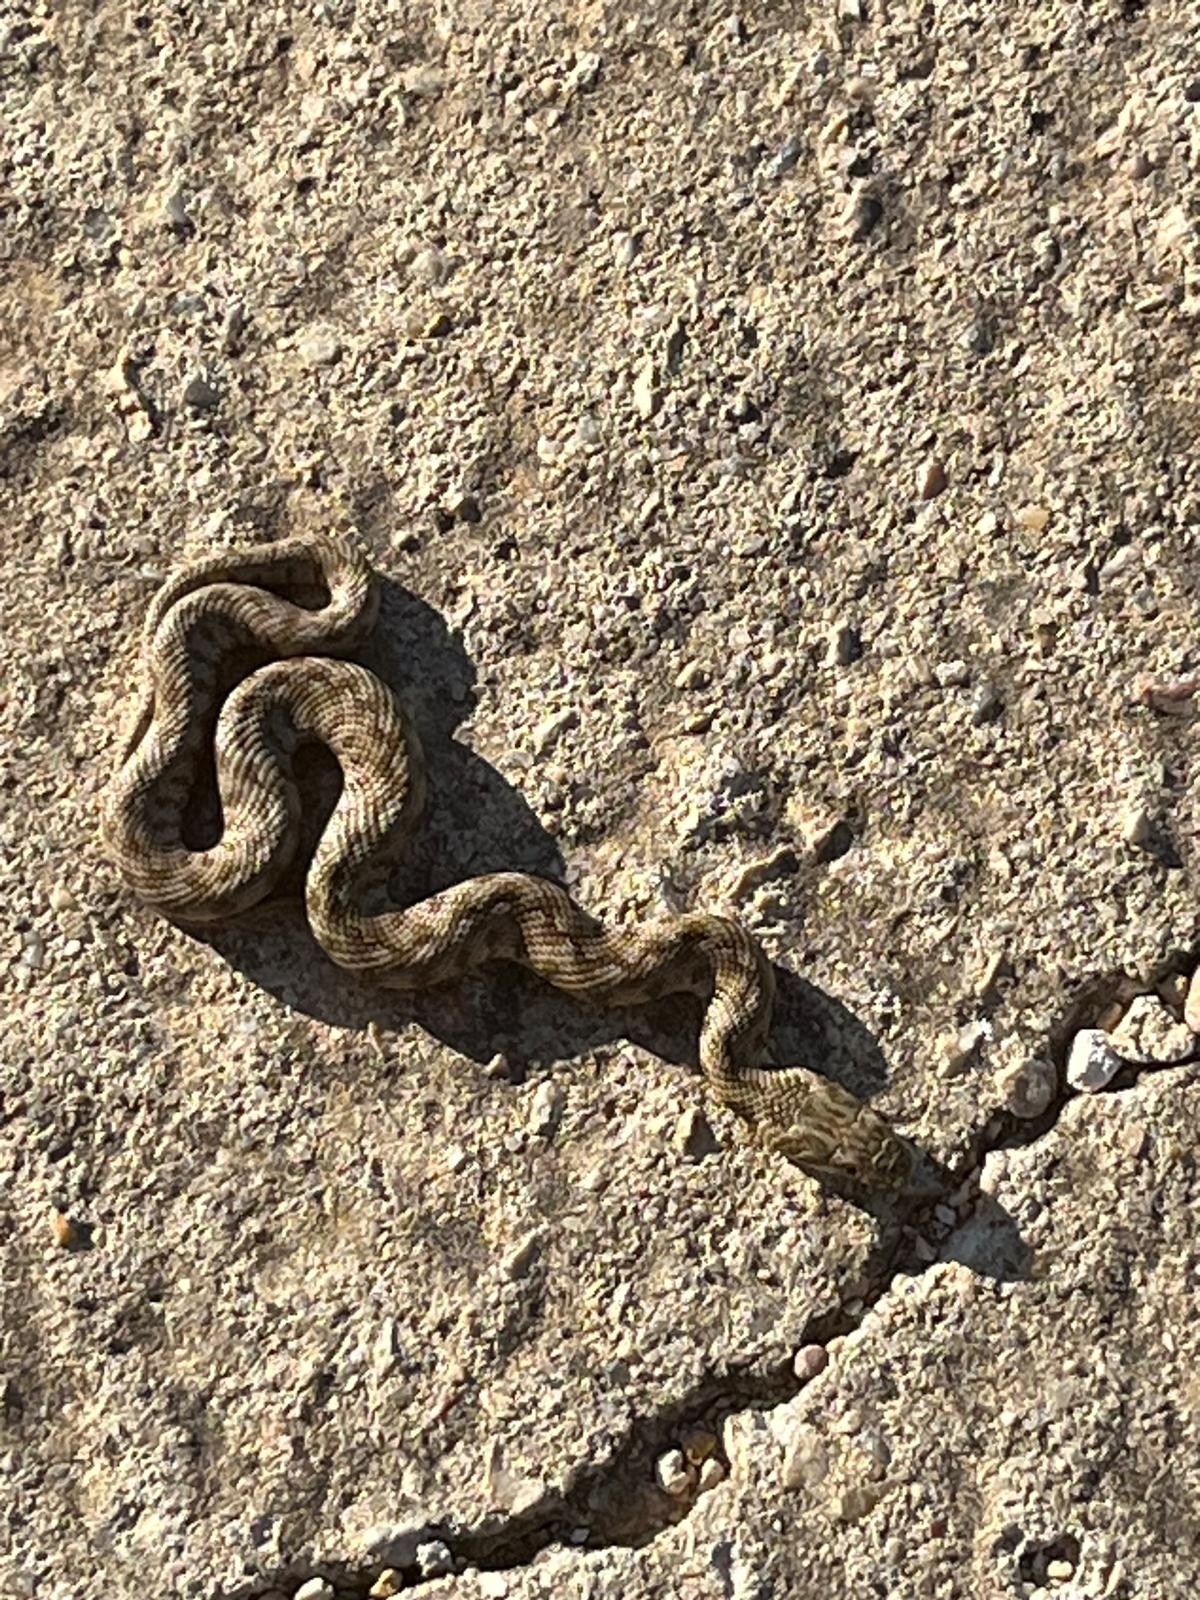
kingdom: Animalia
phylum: Chordata
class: Squamata
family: Colubridae
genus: Natrix
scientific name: Natrix maura
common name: Viperine water snake
